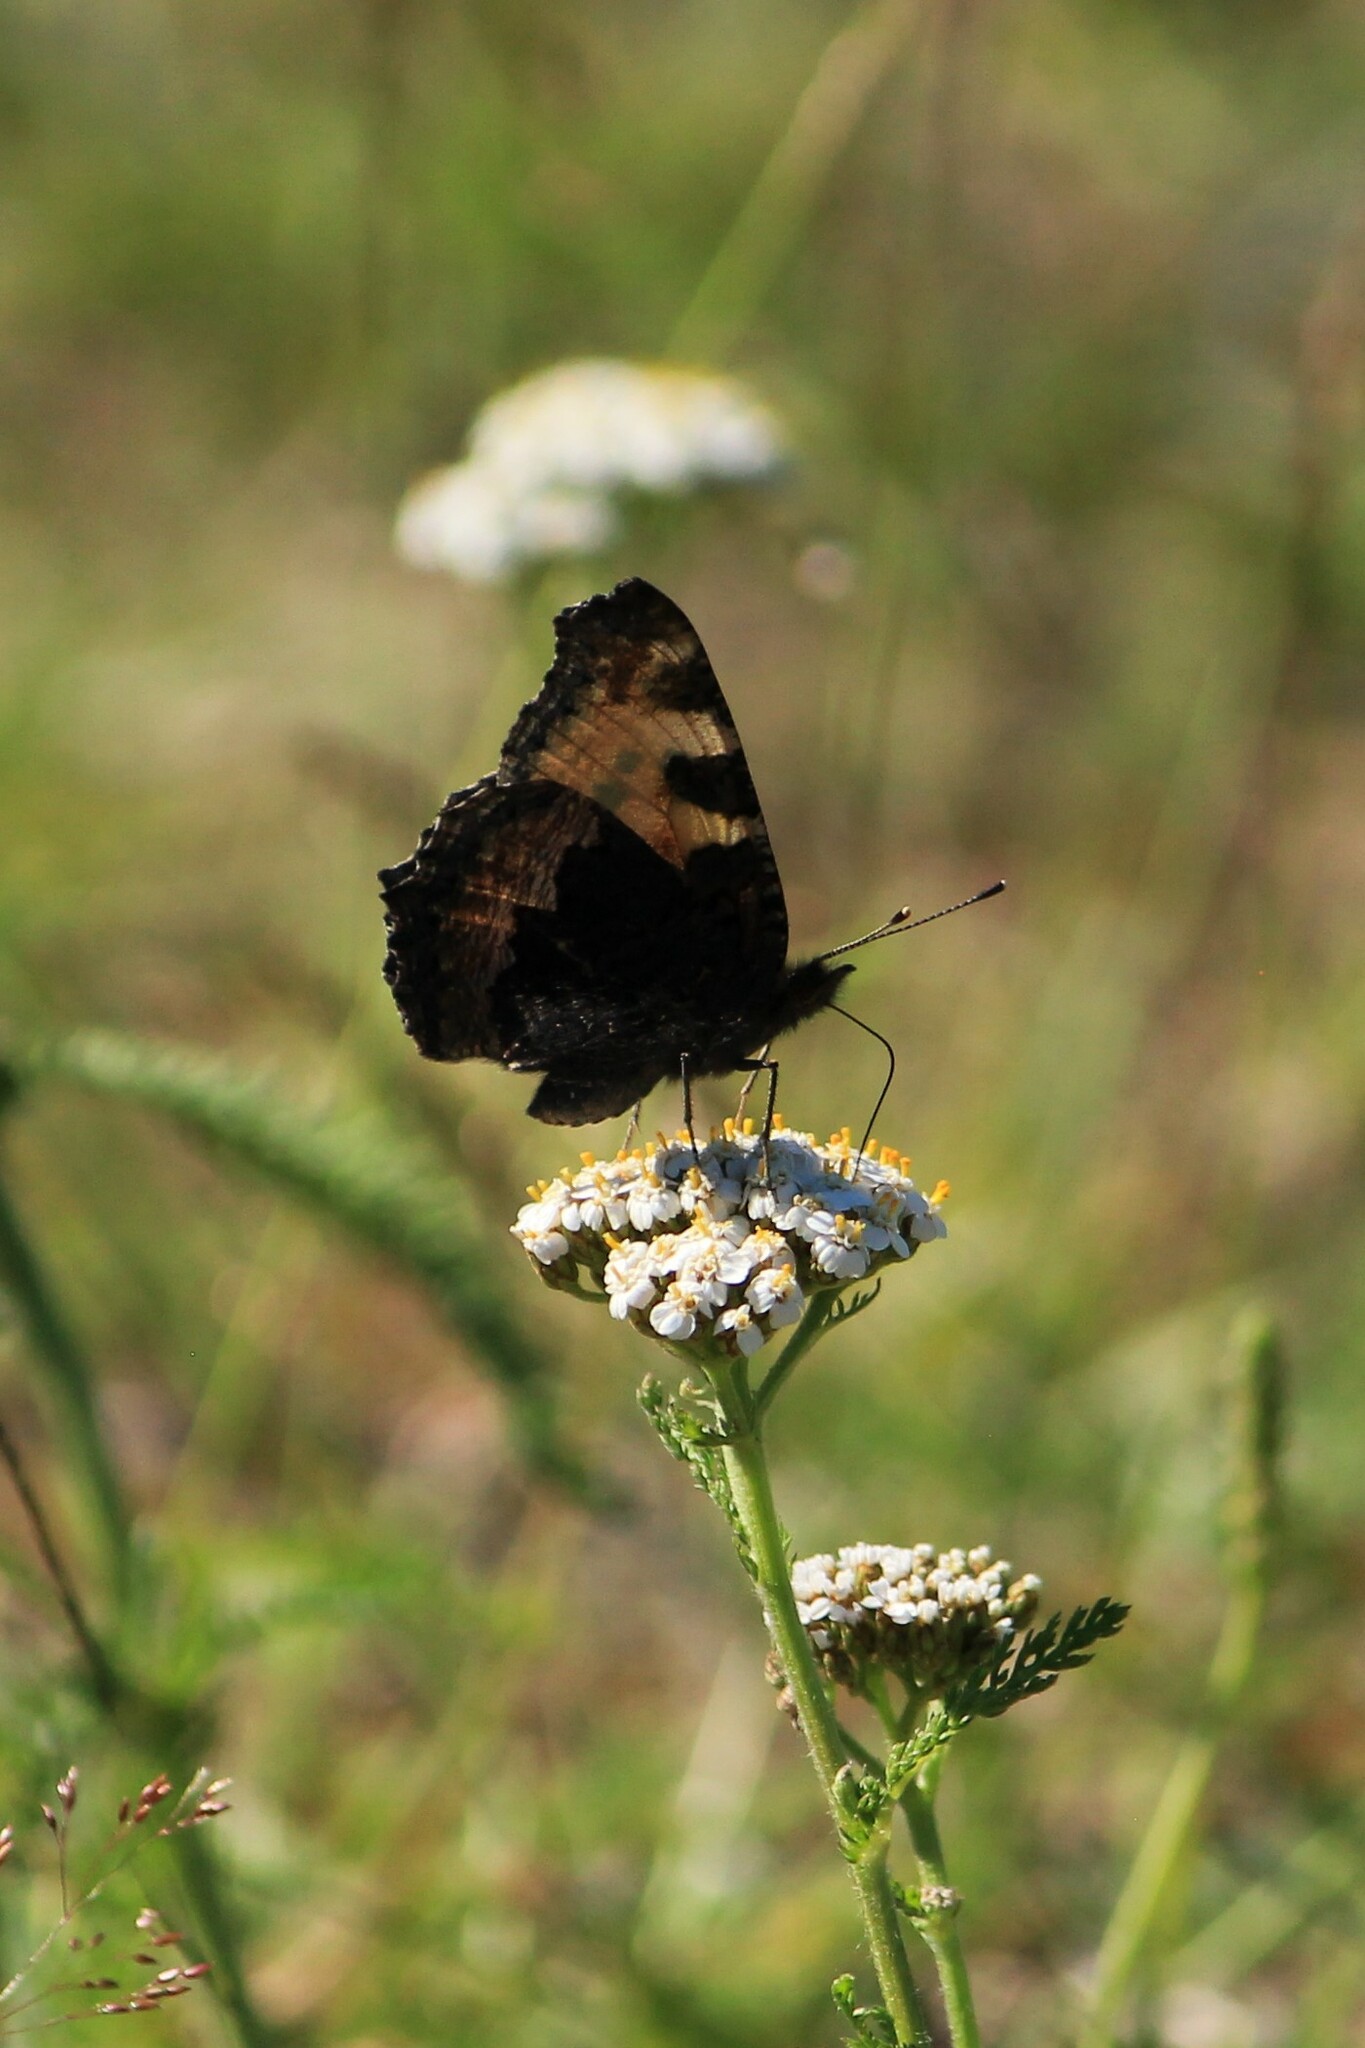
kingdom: Animalia
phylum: Arthropoda
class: Insecta
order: Lepidoptera
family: Nymphalidae
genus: Aglais
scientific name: Aglais urticae
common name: Small tortoiseshell
